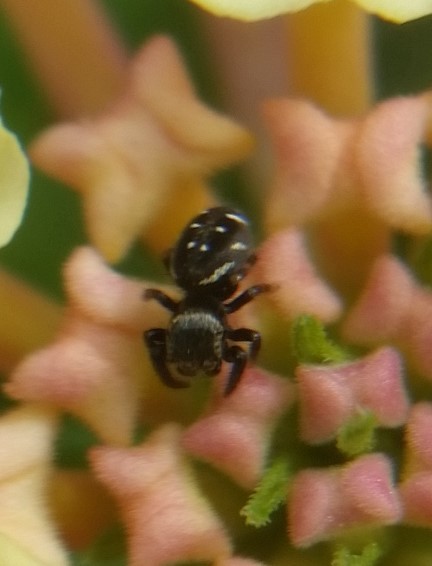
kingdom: Animalia
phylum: Arthropoda
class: Arachnida
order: Araneae
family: Salticidae
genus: Paraphidippus
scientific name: Paraphidippus aurantius
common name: Jumping spiders
